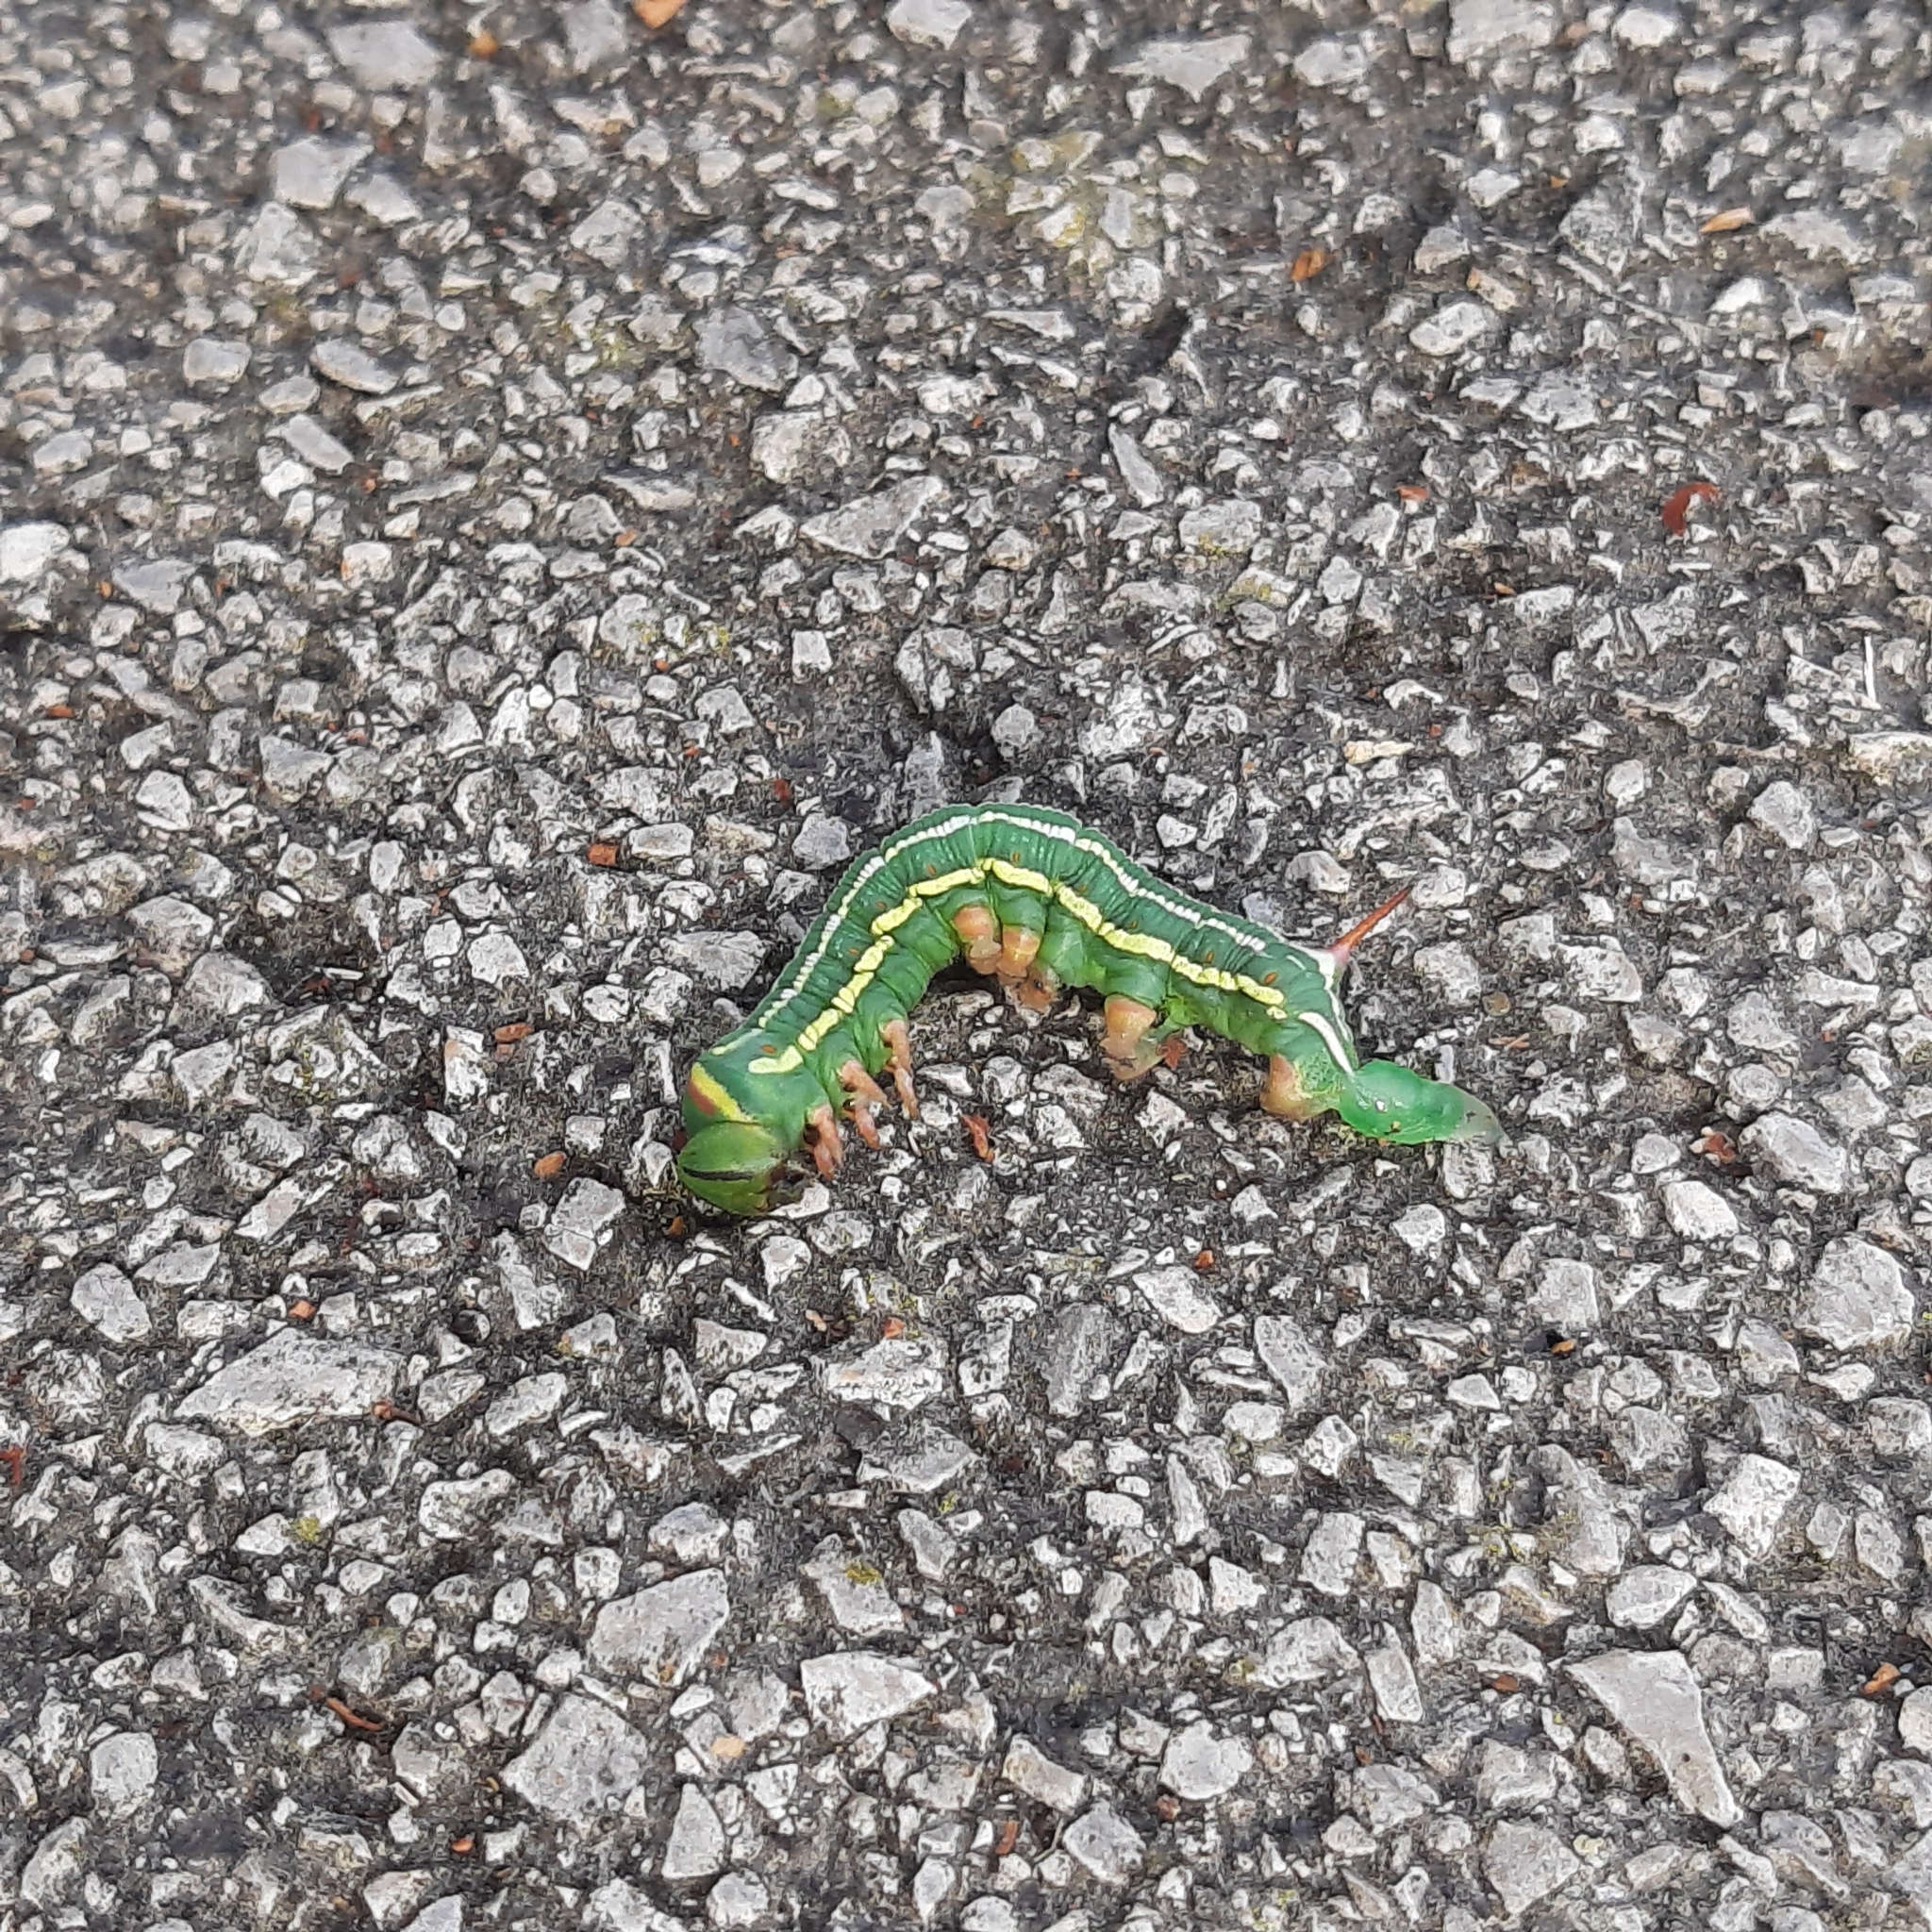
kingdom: Animalia
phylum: Arthropoda
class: Insecta
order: Lepidoptera
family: Sphingidae
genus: Sphinx
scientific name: Sphinx pinastri
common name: Pine hawk-moth
